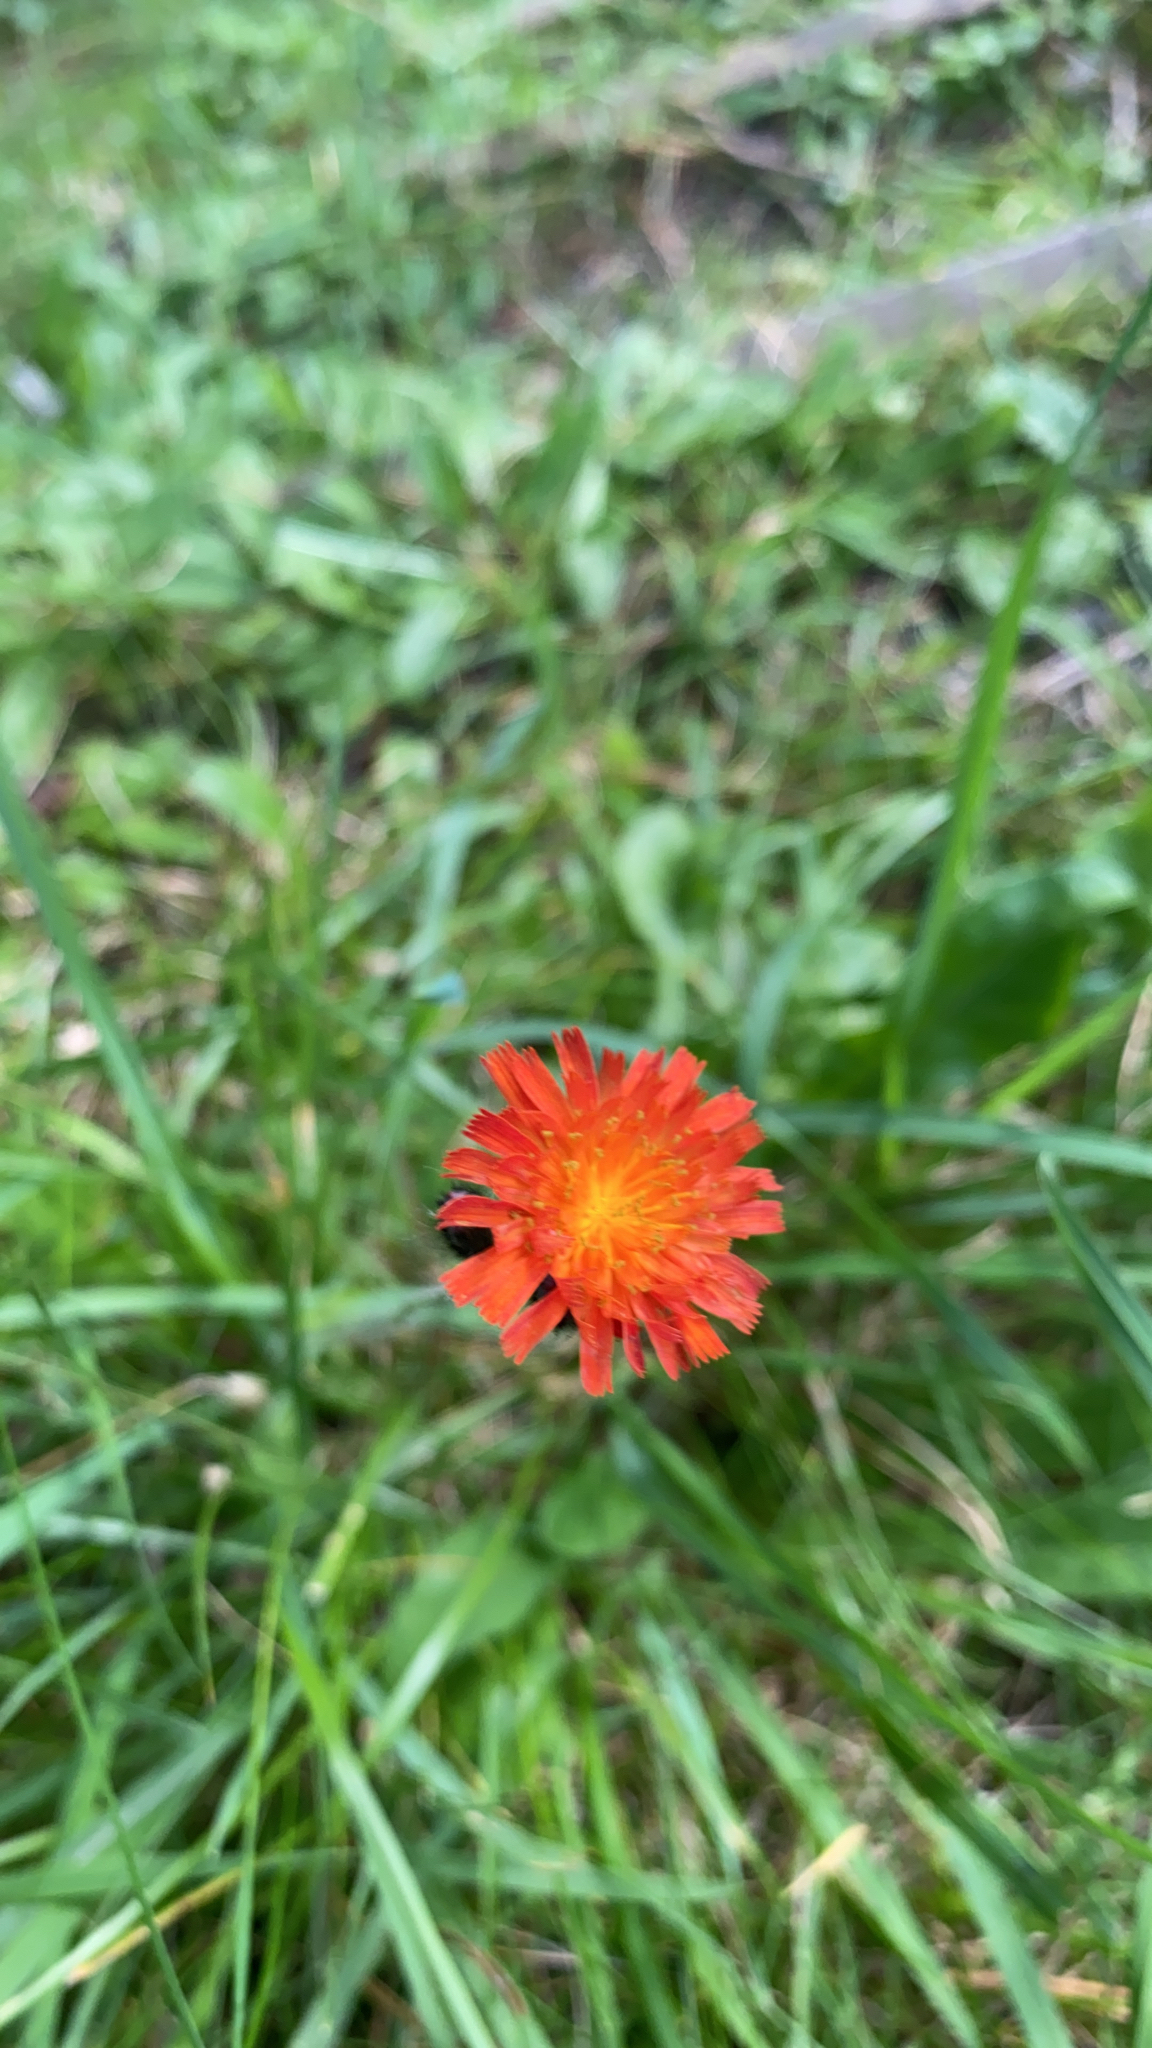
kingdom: Plantae
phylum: Tracheophyta
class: Magnoliopsida
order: Asterales
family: Asteraceae
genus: Pilosella
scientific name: Pilosella aurantiaca
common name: Fox-and-cubs
